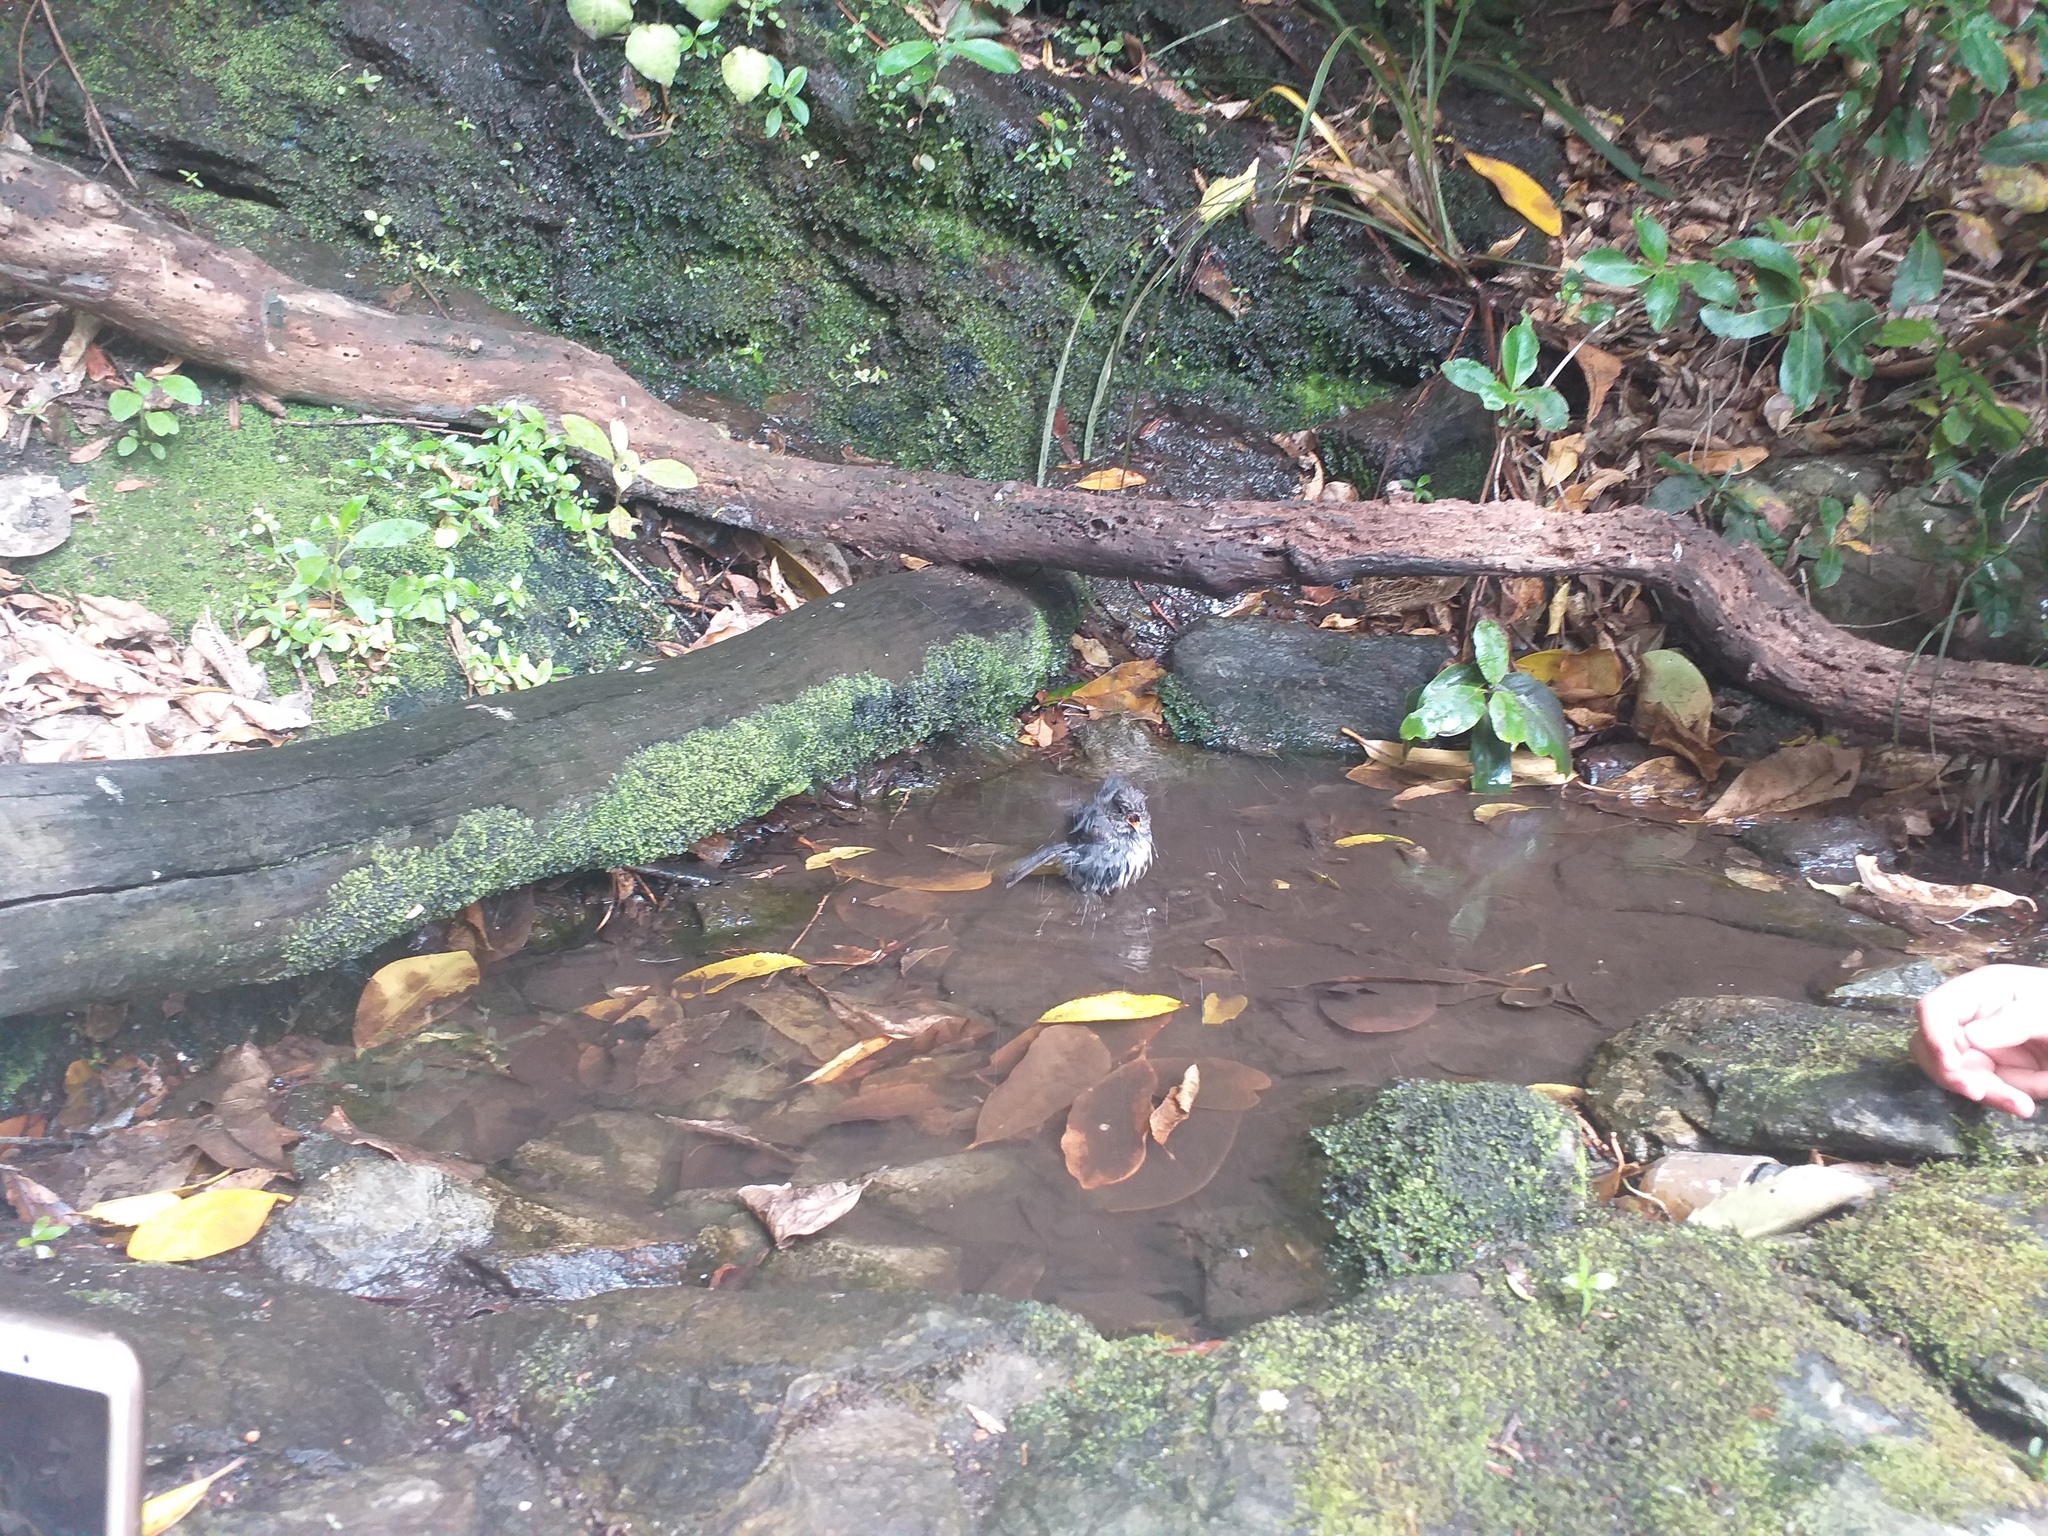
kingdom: Animalia
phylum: Chordata
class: Aves
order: Passeriformes
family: Petroicidae
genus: Petroica
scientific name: Petroica australis
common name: New zealand robin
